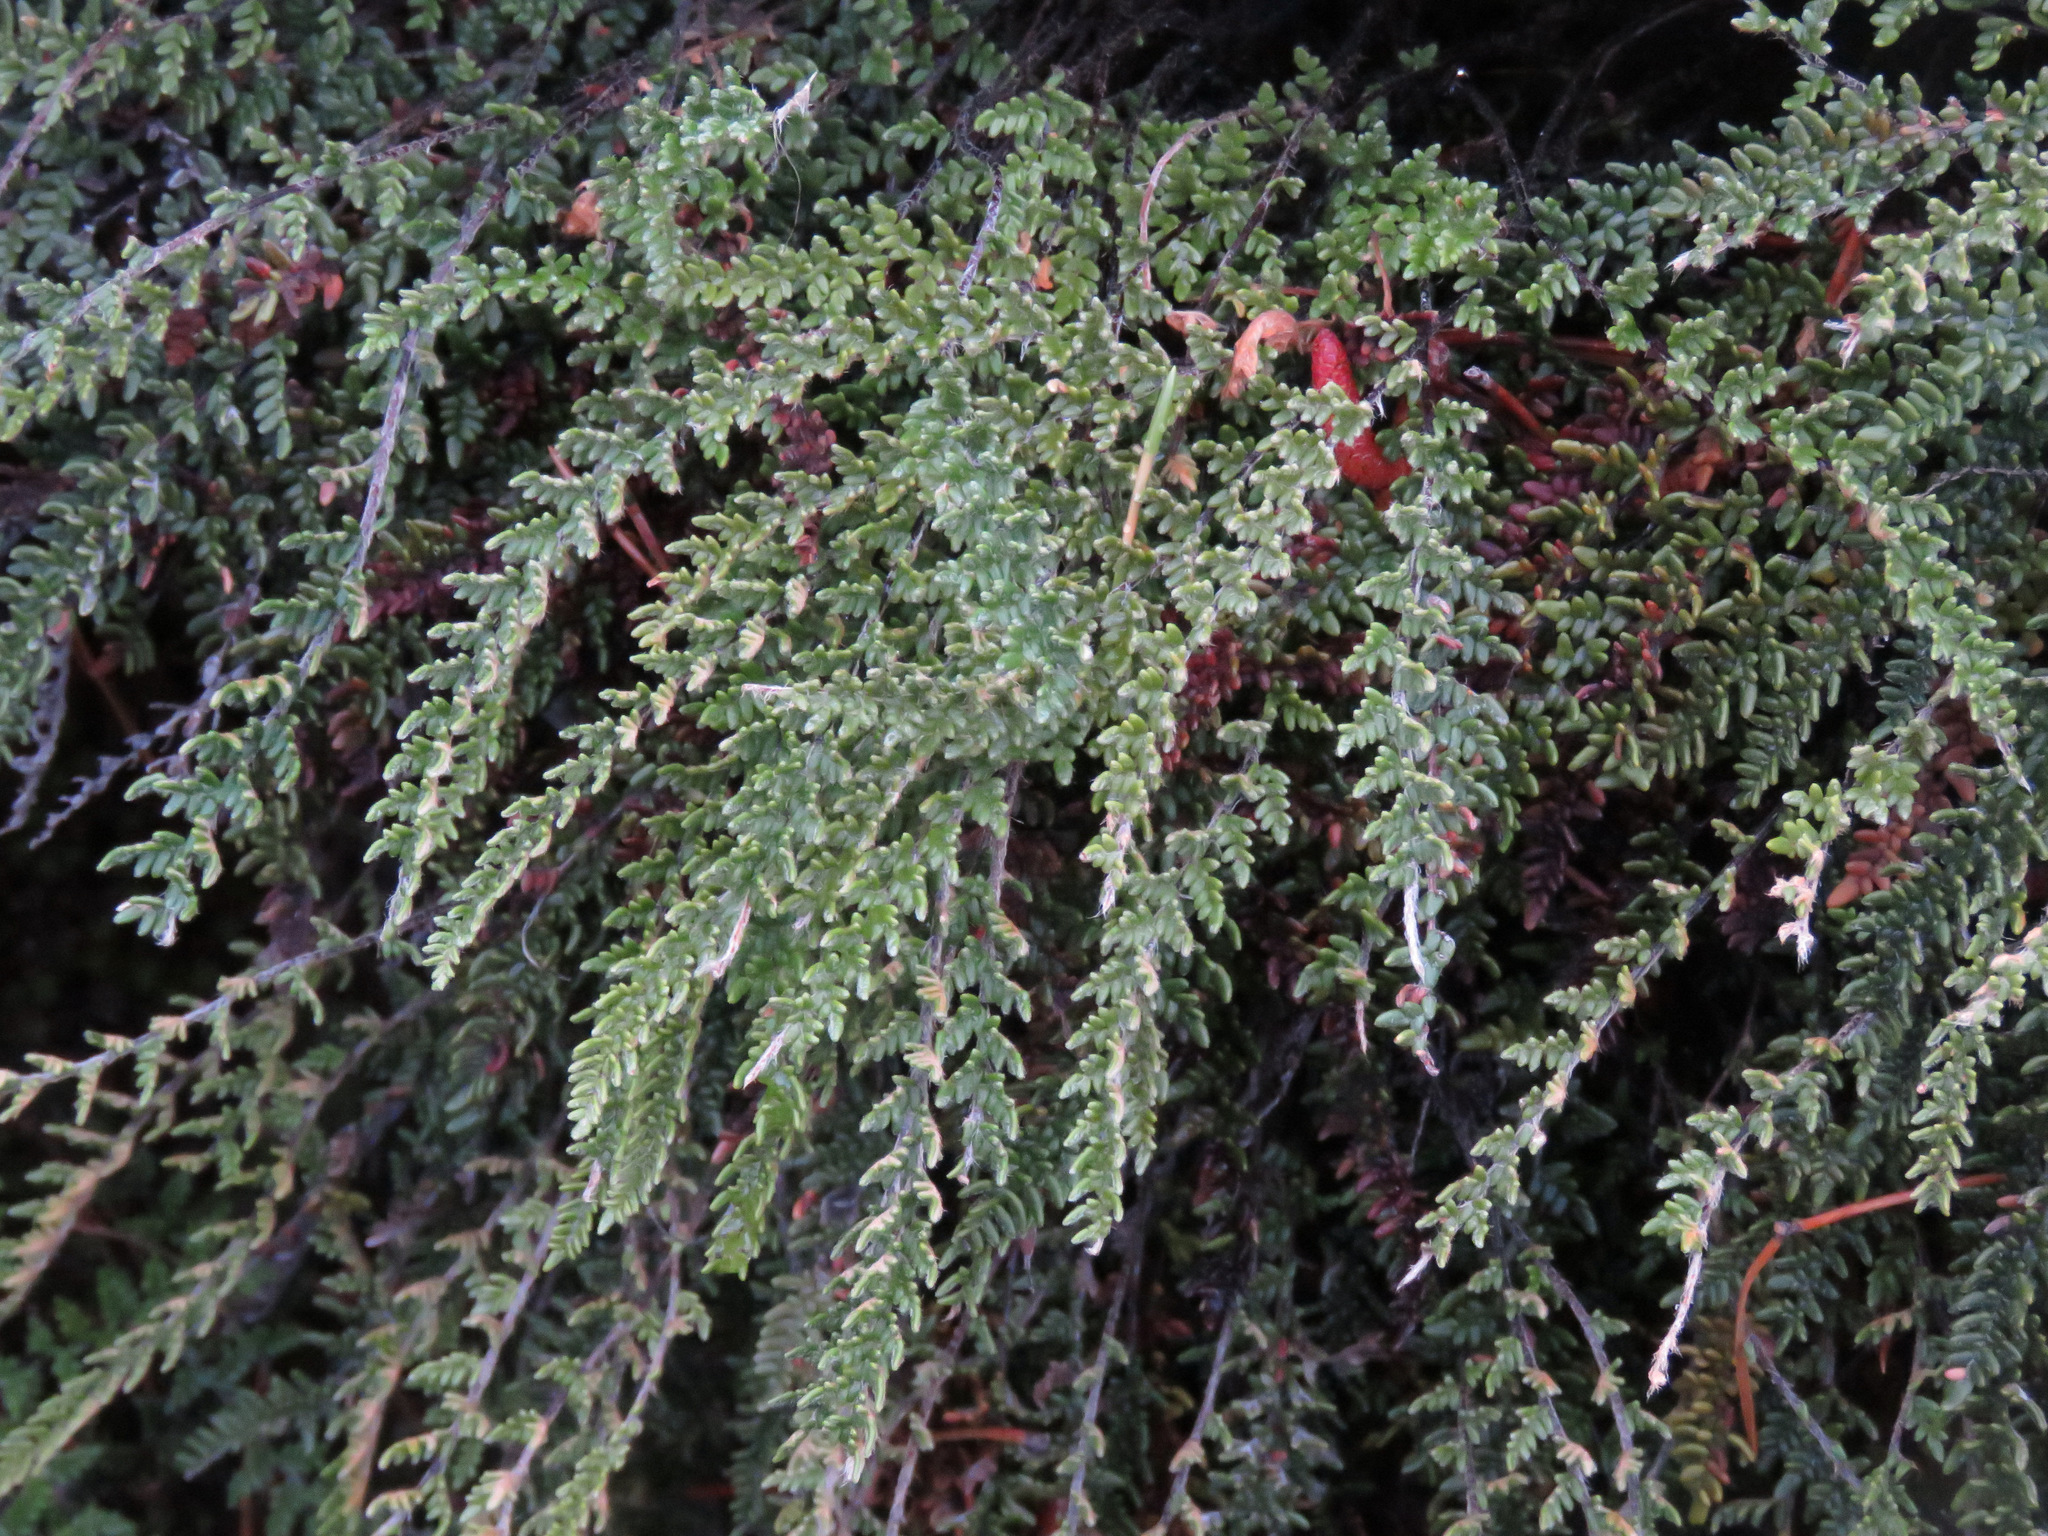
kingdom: Plantae
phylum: Tracheophyta
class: Polypodiopsida
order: Polypodiales
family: Pteridaceae
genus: Myriopteris
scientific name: Myriopteris gracillima
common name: Lace fern
